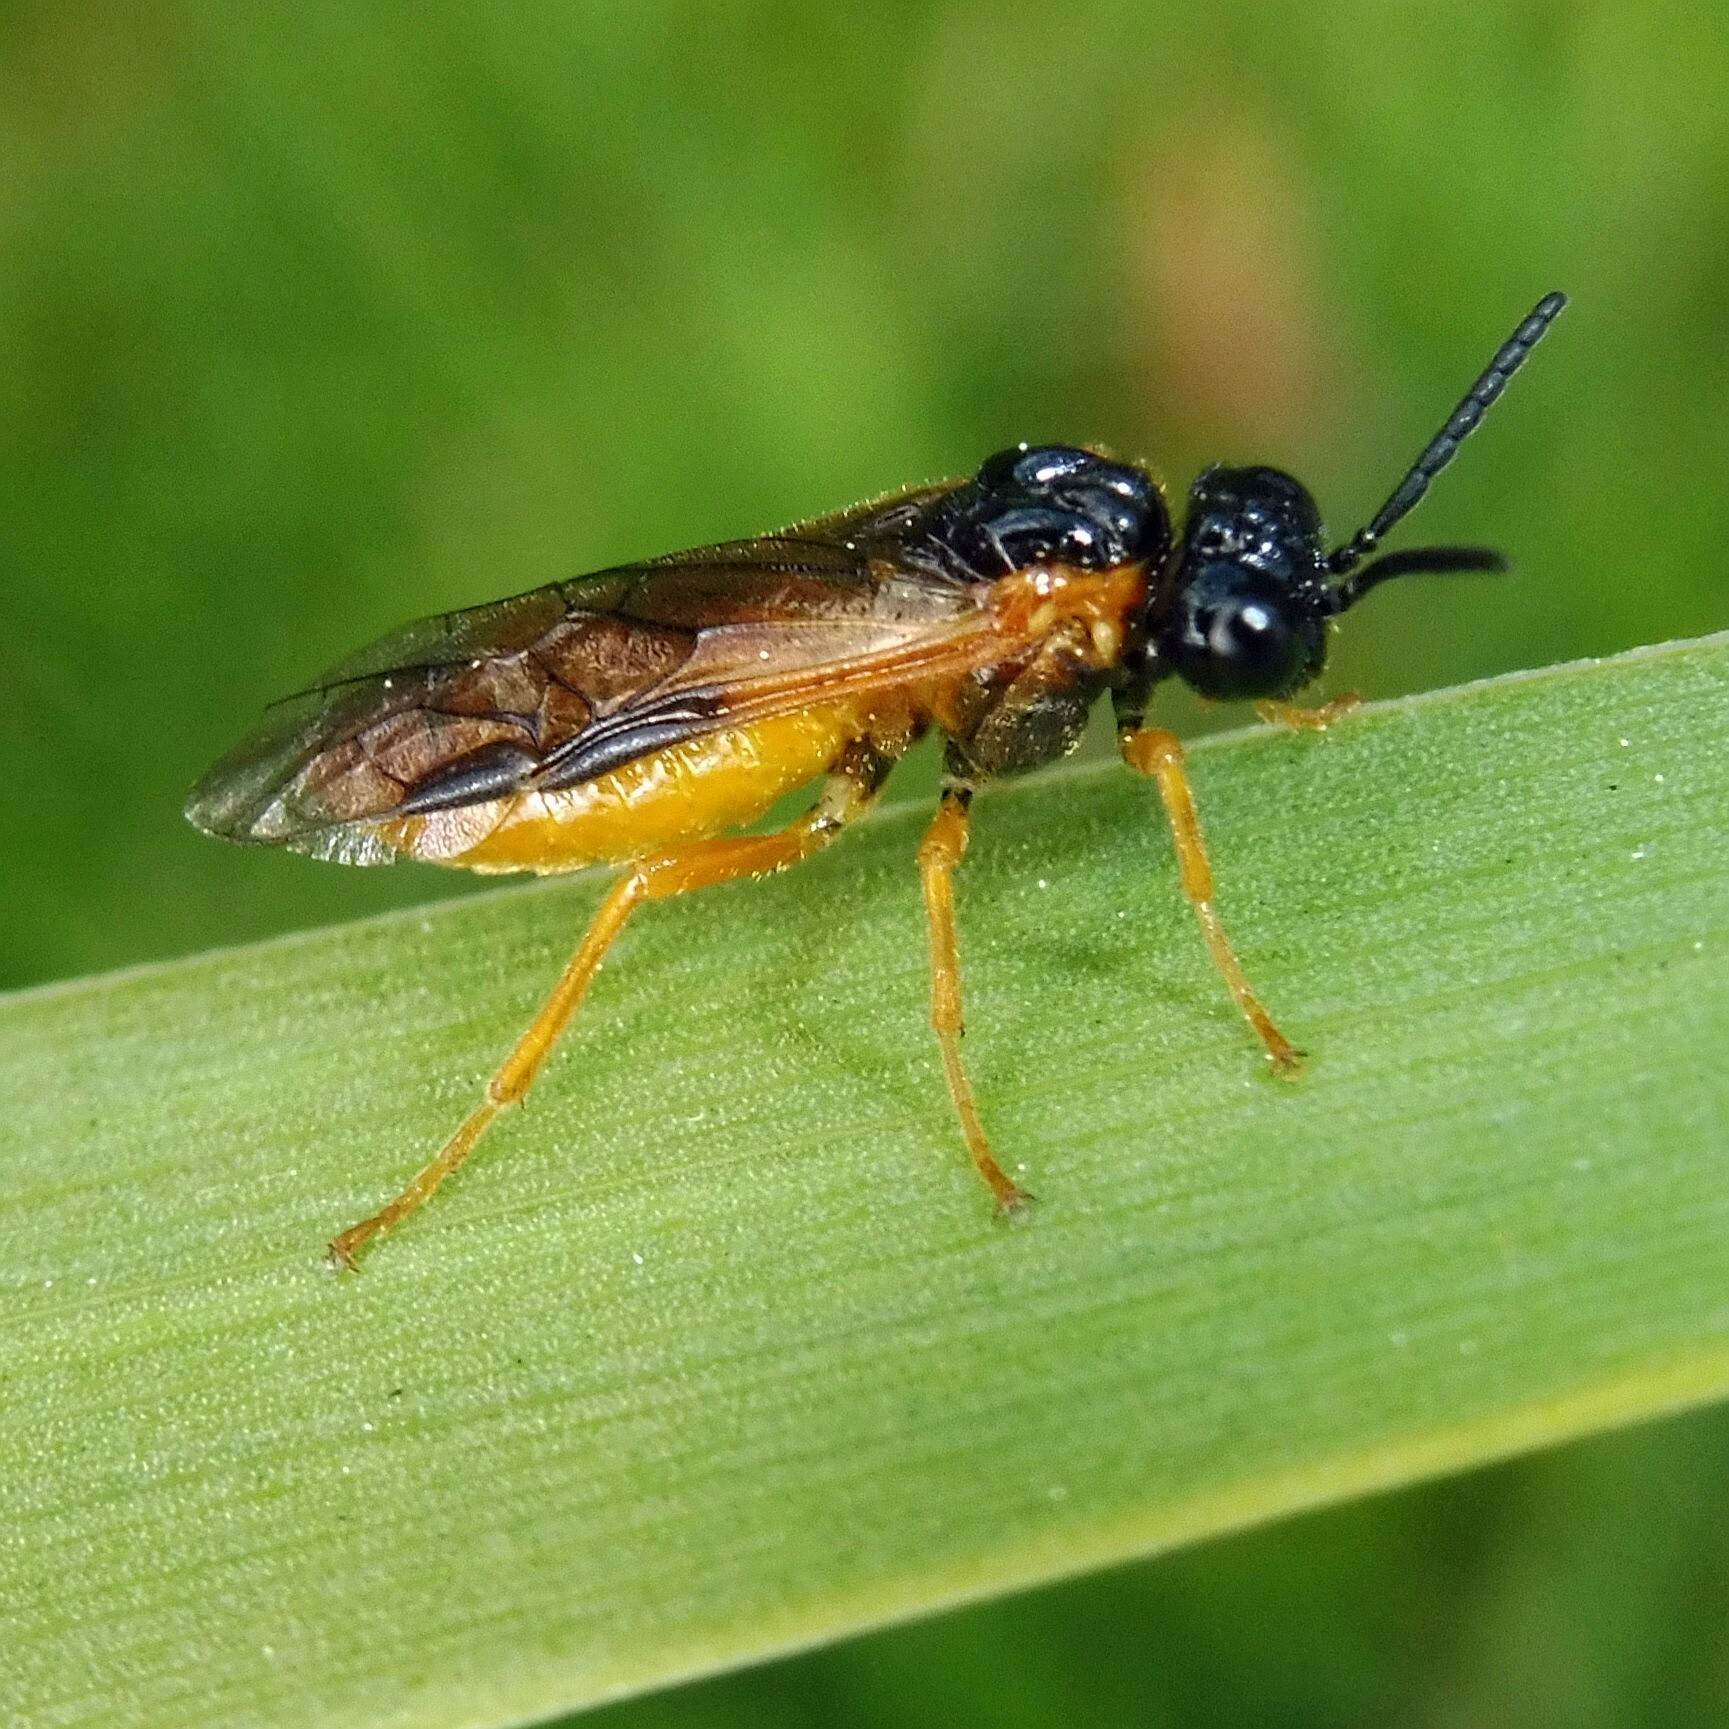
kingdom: Animalia
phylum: Arthropoda
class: Insecta
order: Hymenoptera
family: Tenthredinidae
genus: Selandria
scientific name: Selandria serva
